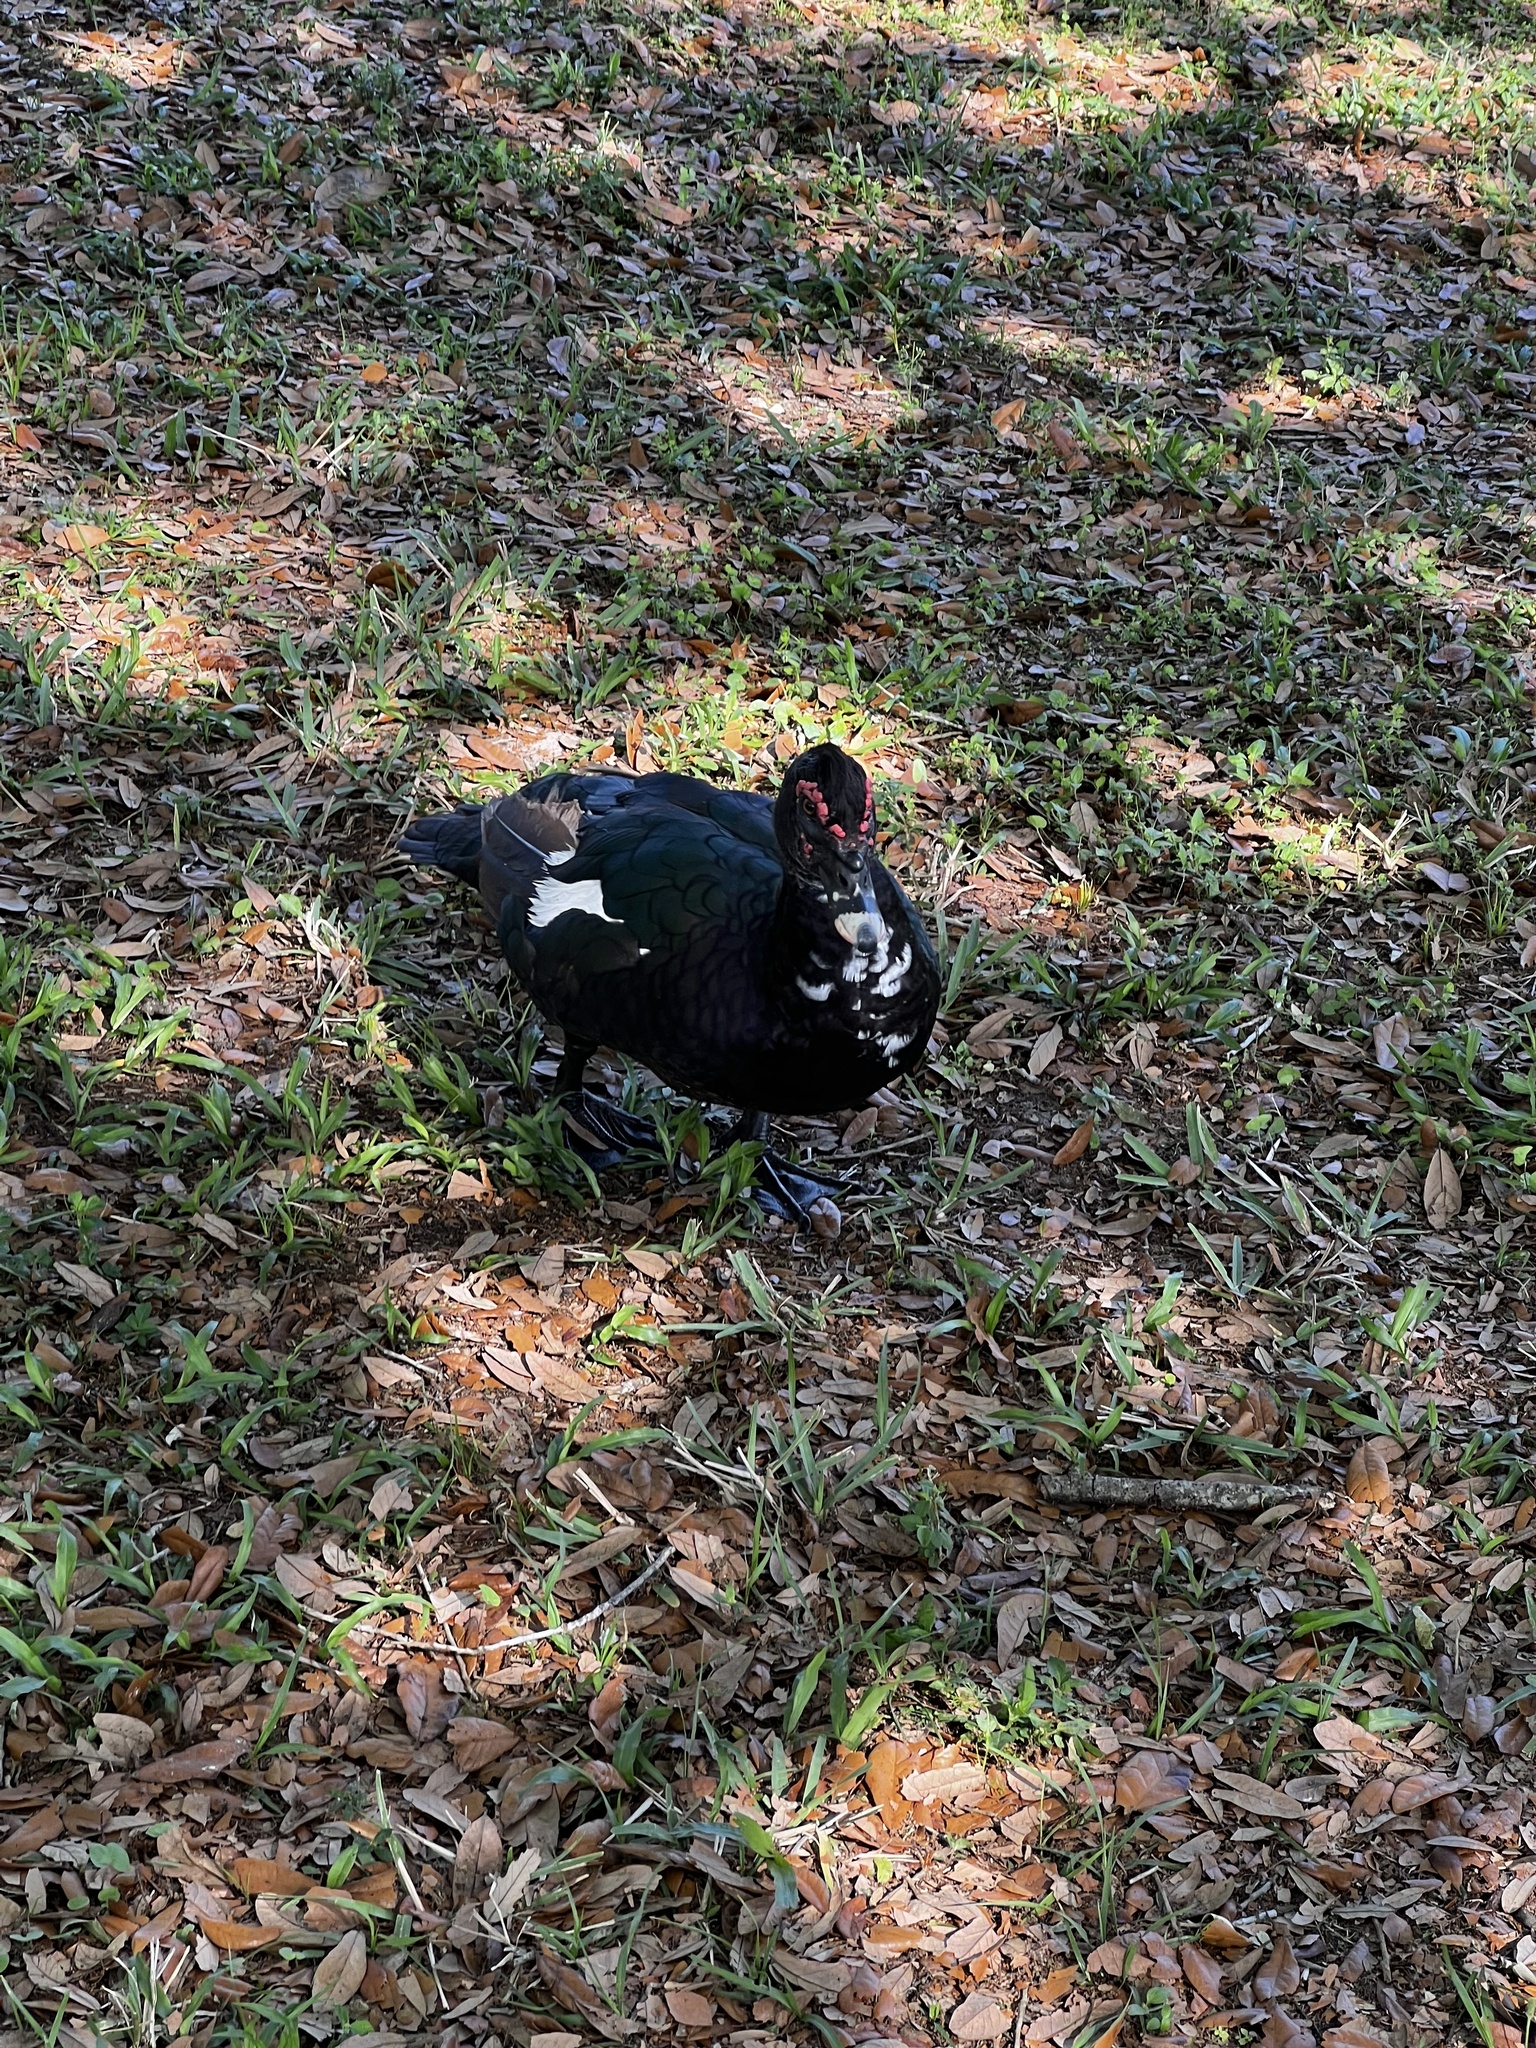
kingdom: Animalia
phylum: Chordata
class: Aves
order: Anseriformes
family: Anatidae
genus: Cairina
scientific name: Cairina moschata
